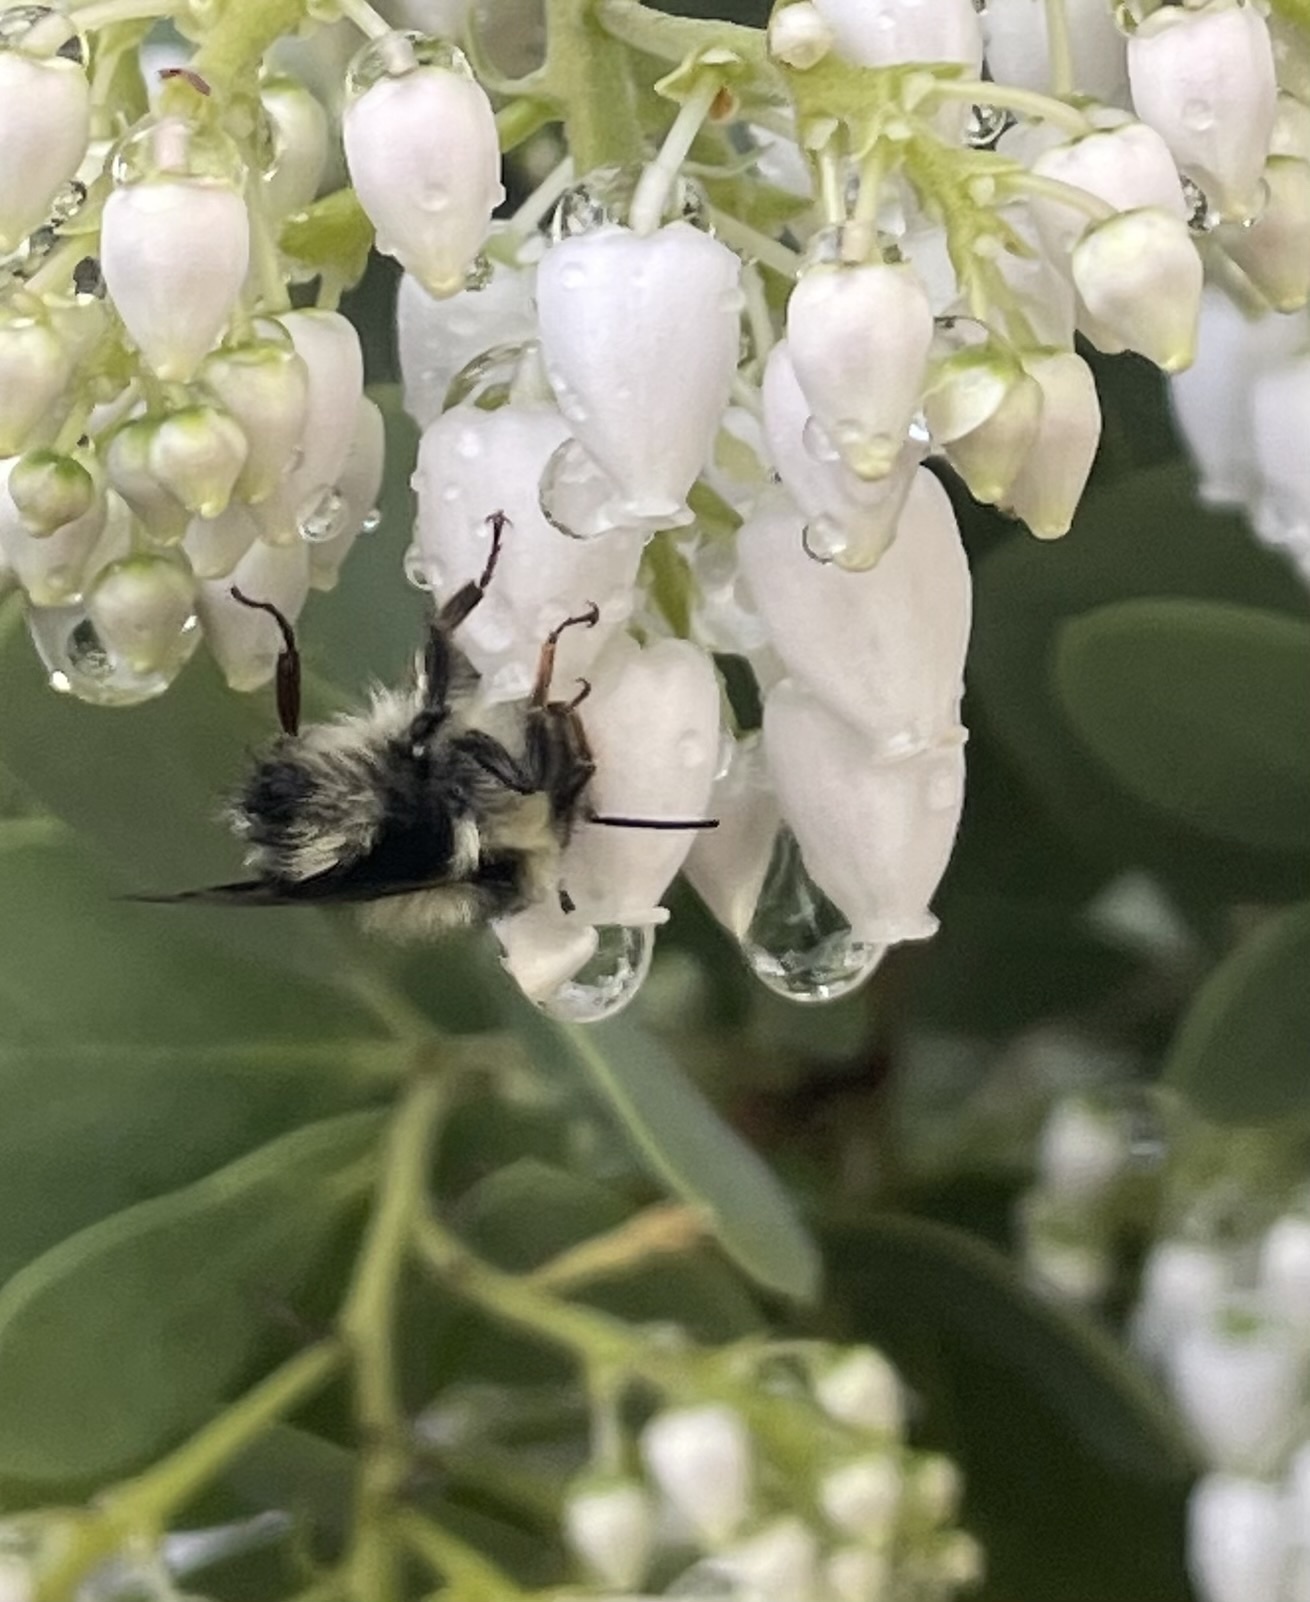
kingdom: Animalia
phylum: Arthropoda
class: Insecta
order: Hymenoptera
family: Apidae
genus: Bombus
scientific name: Bombus melanopygus
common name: Black tail bumble bee
